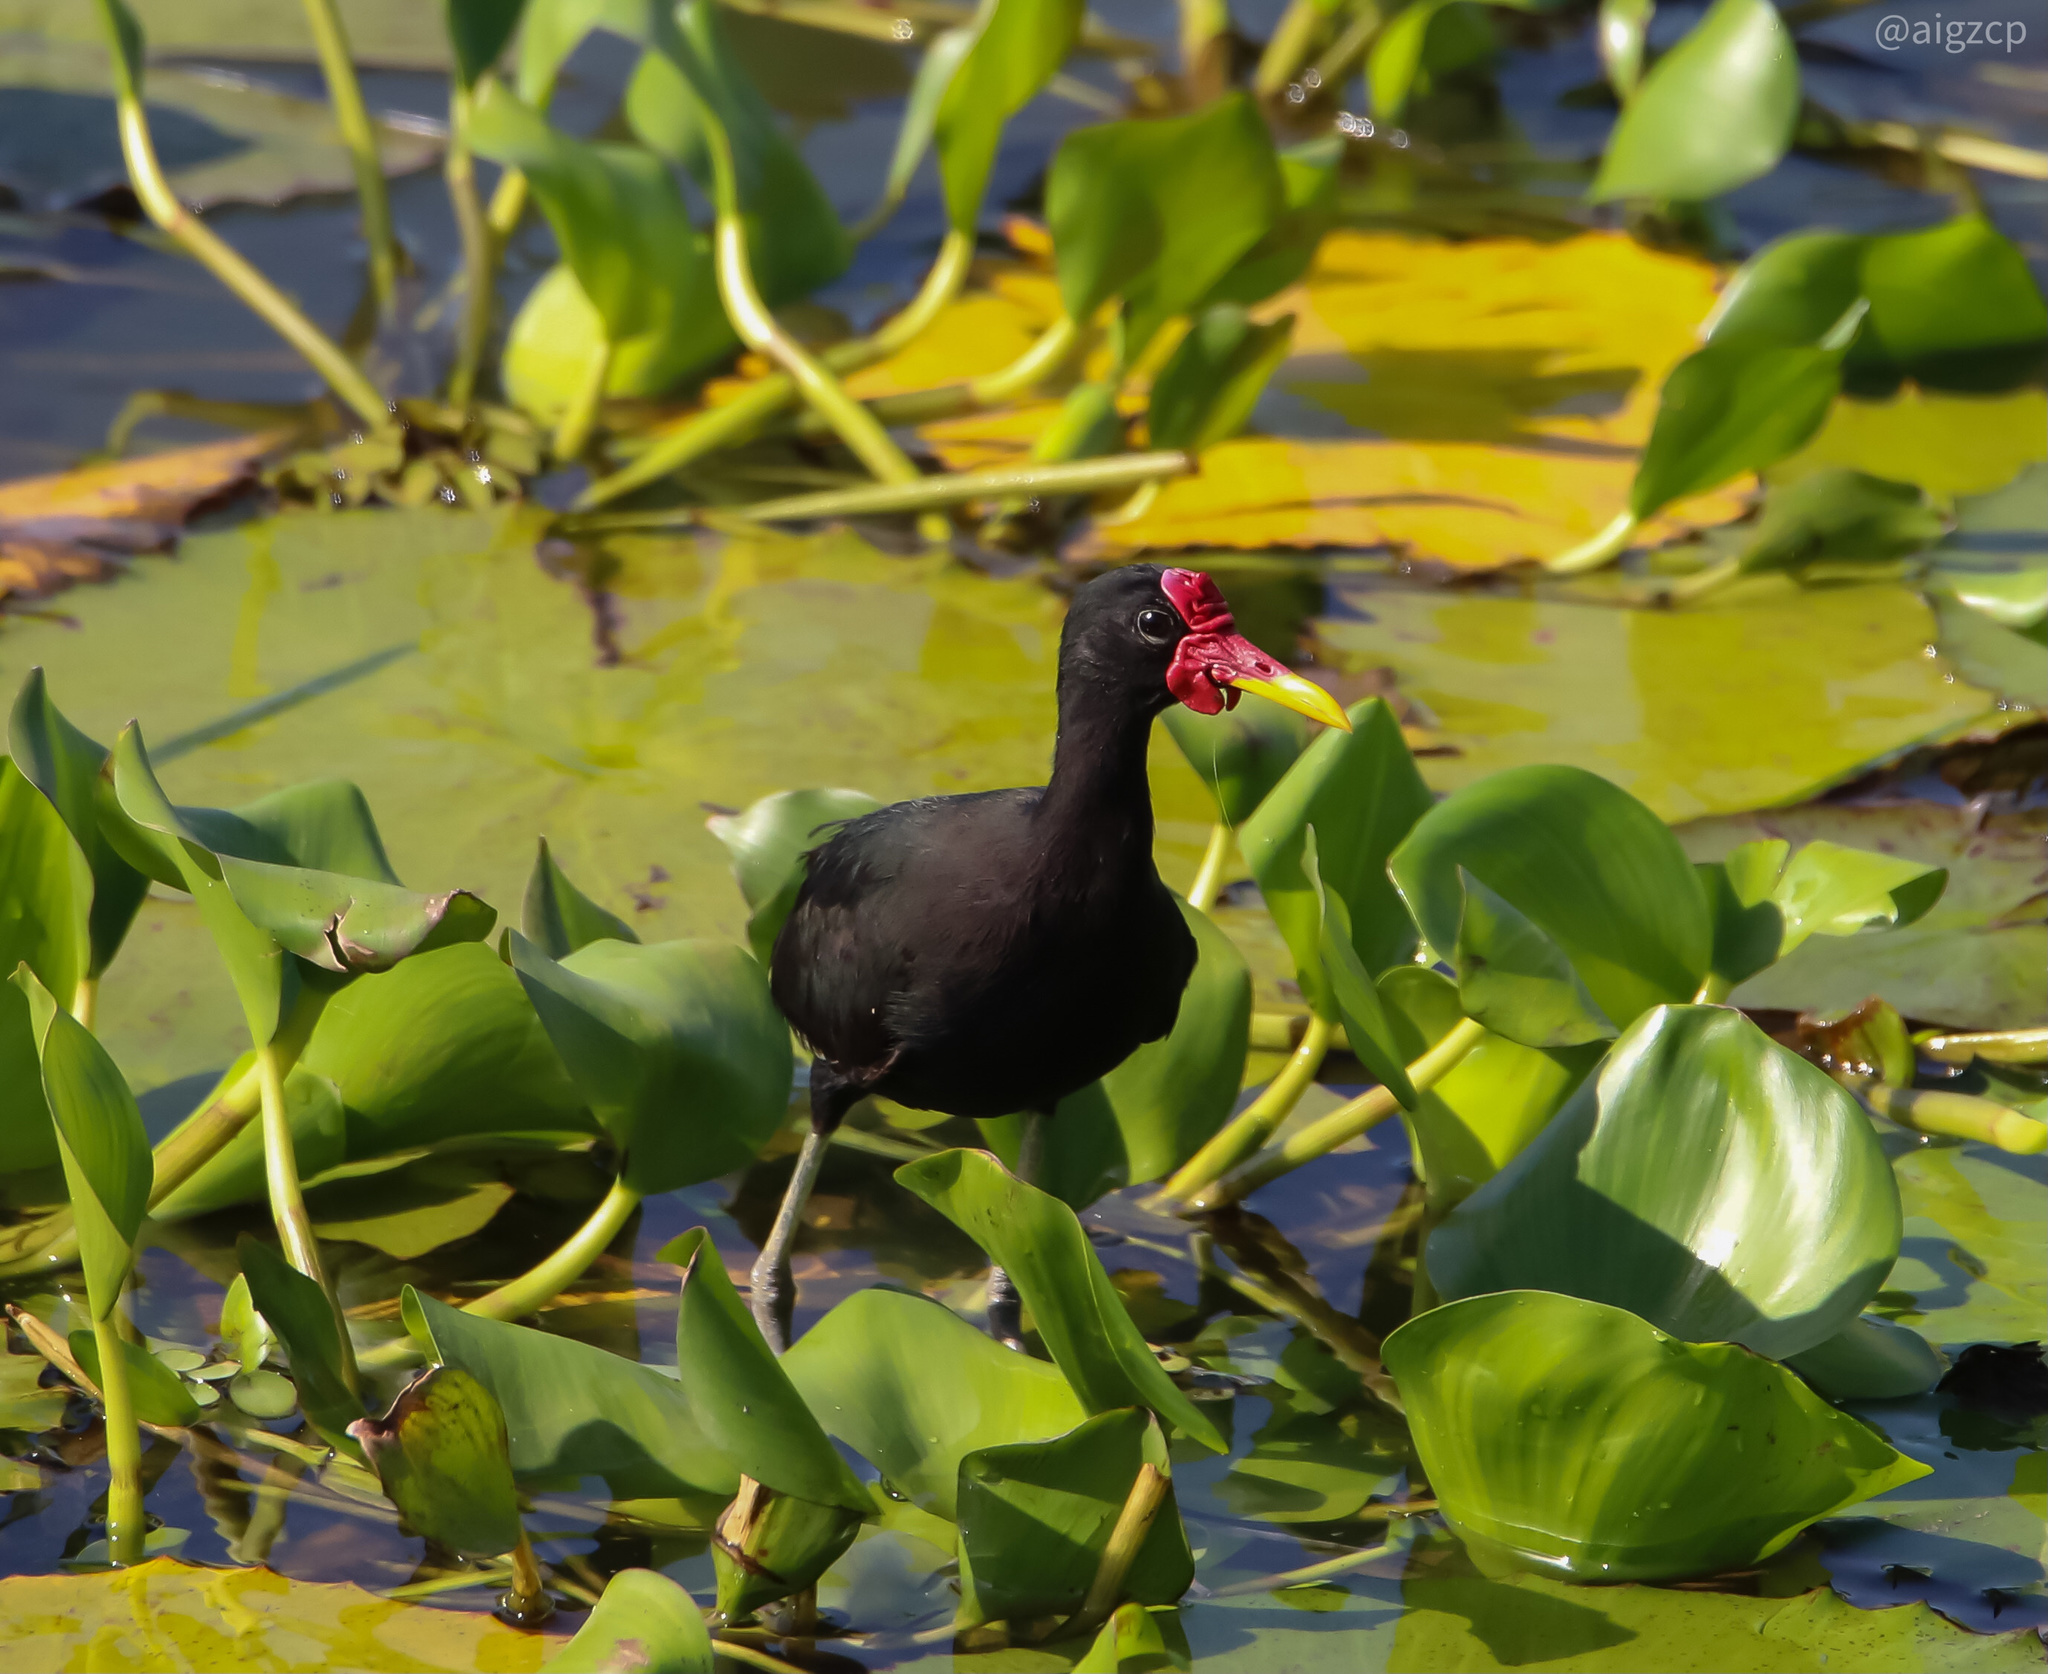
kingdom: Animalia
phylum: Chordata
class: Aves
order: Charadriiformes
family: Jacanidae
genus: Jacana
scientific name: Jacana jacana
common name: Wattled jacana
